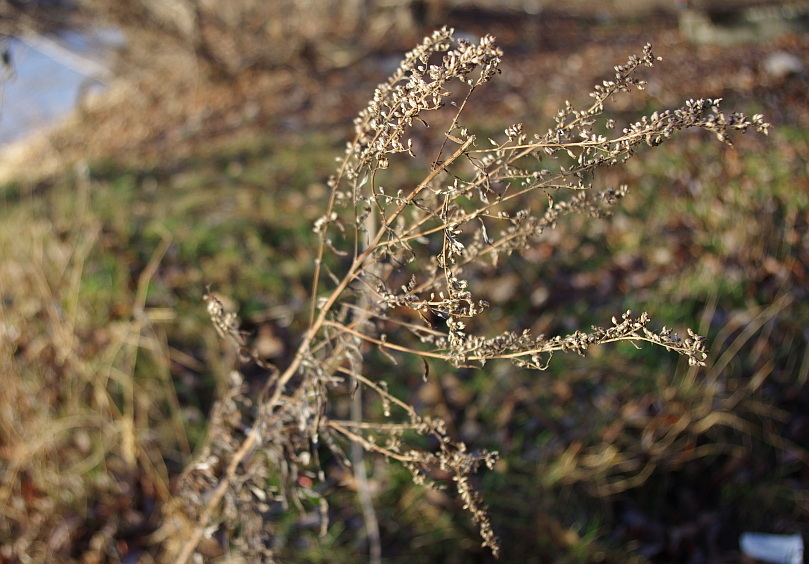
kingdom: Plantae
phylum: Tracheophyta
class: Magnoliopsida
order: Asterales
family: Asteraceae
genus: Artemisia
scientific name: Artemisia vulgaris
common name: Mugwort
